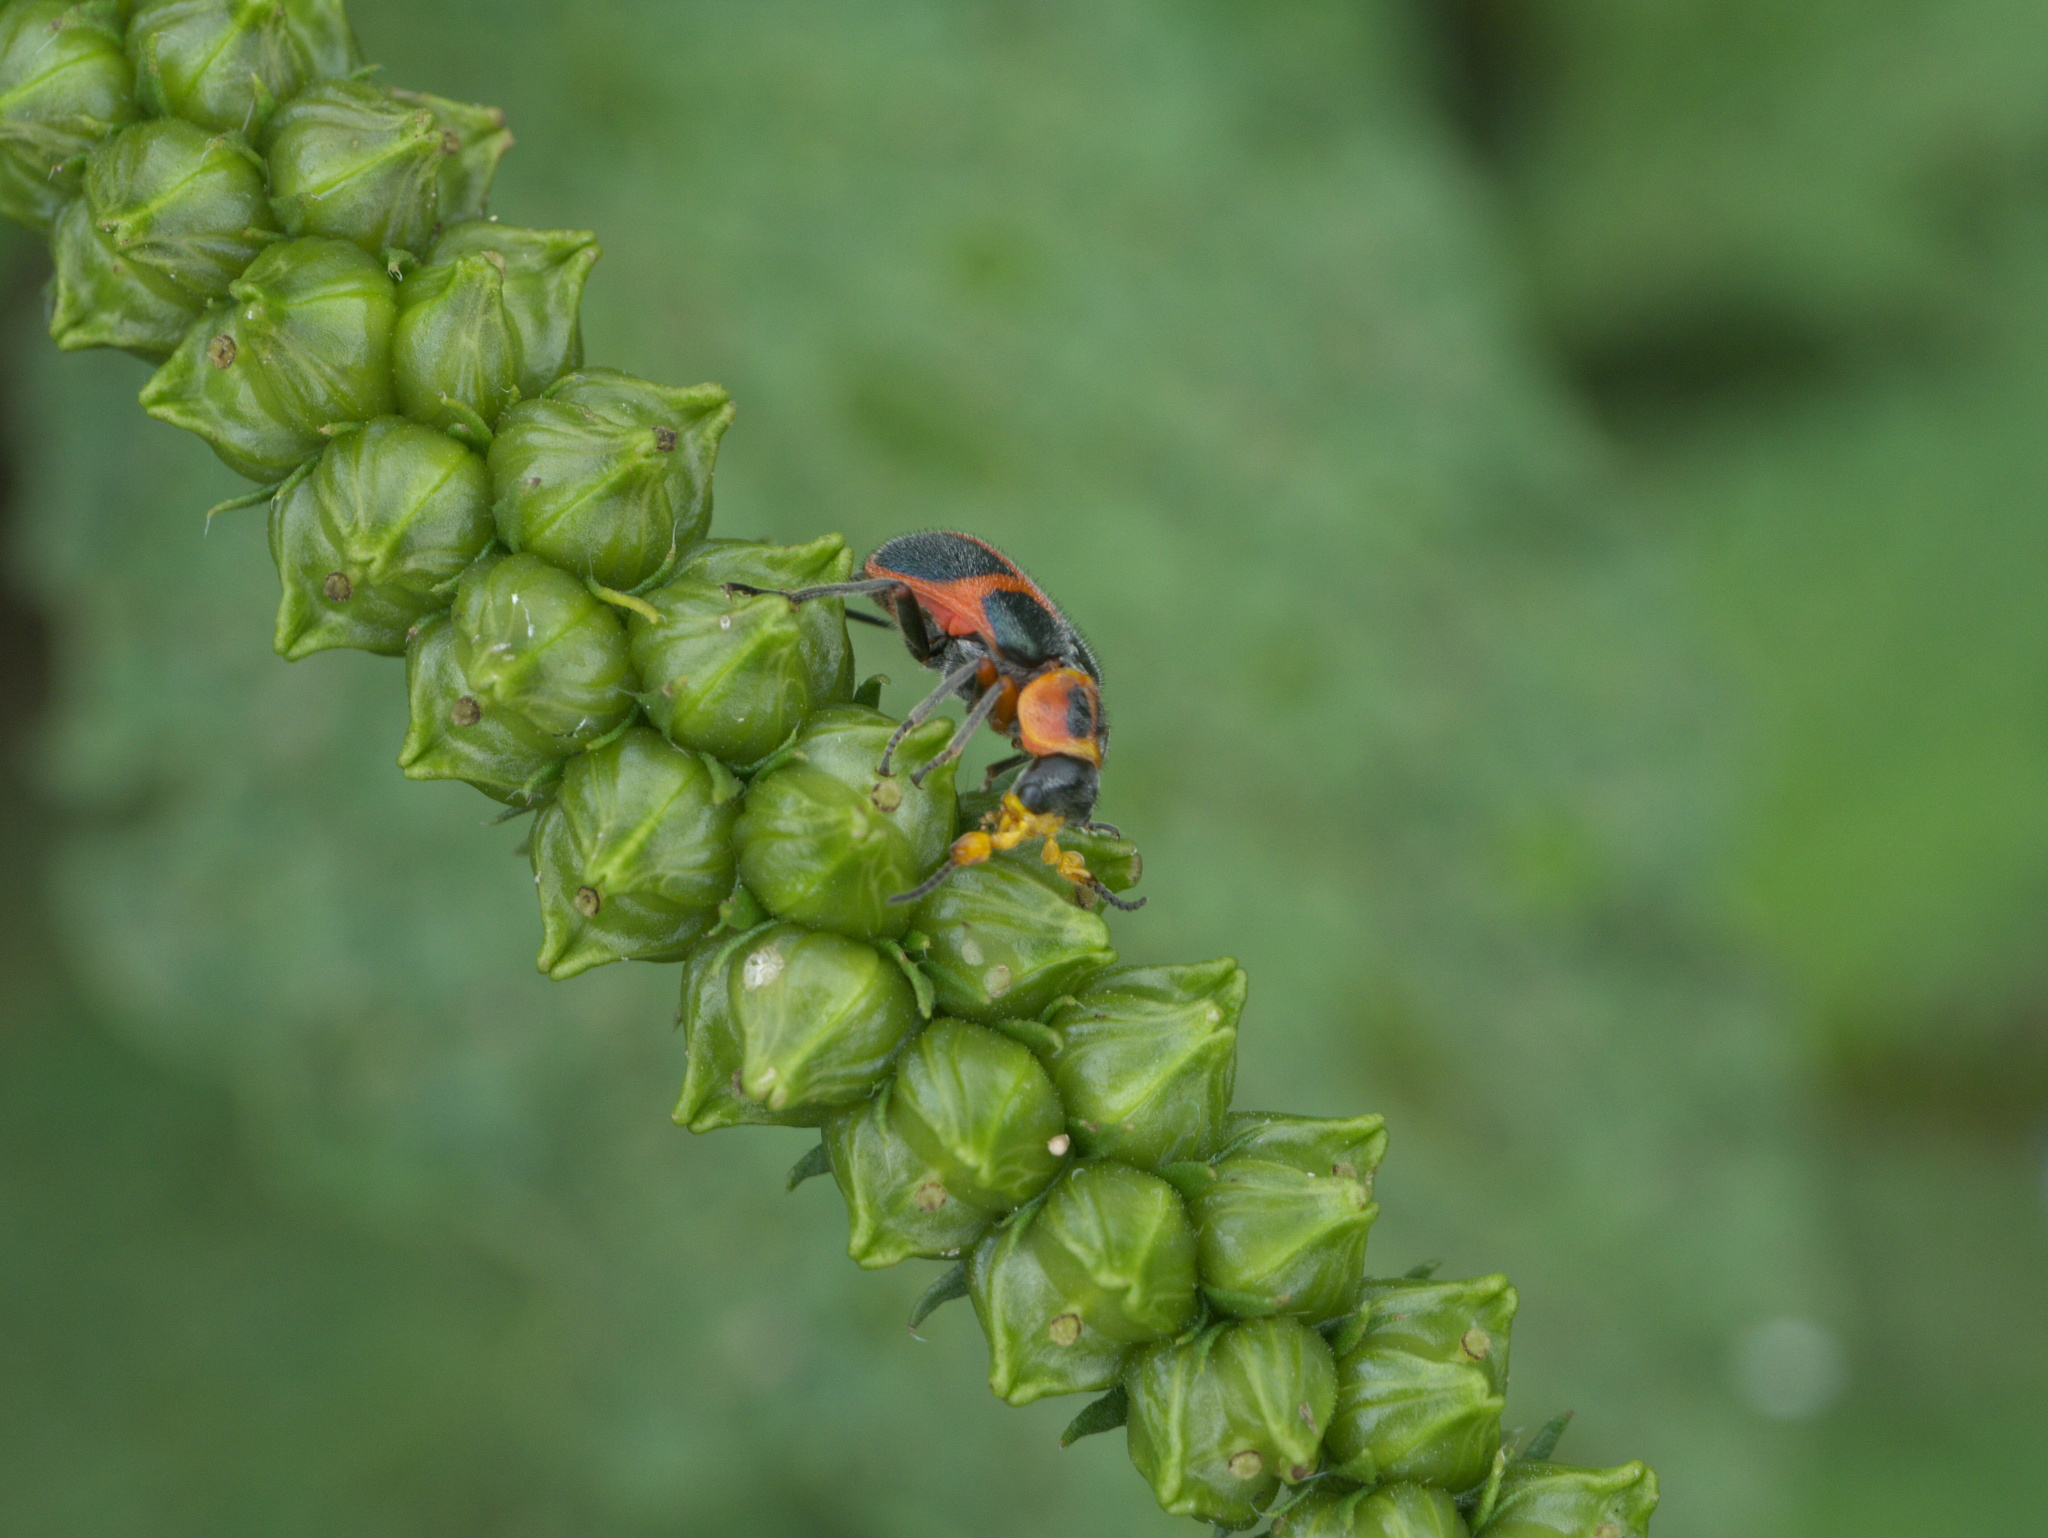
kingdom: Animalia
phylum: Arthropoda
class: Insecta
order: Coleoptera
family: Melyridae
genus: Collops
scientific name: Collops
